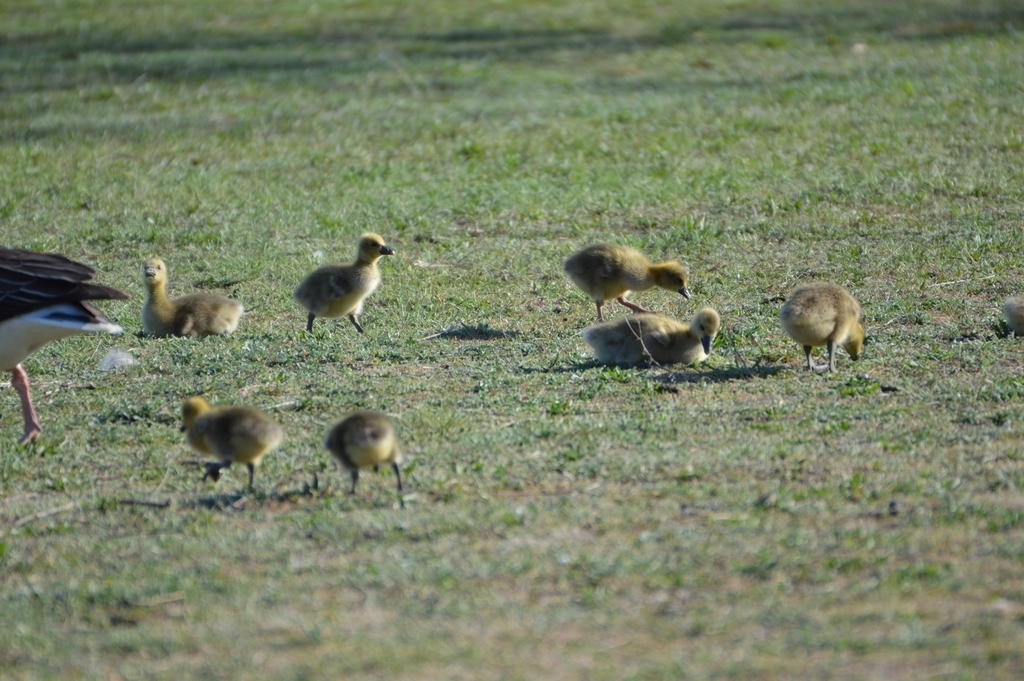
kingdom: Animalia
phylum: Chordata
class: Aves
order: Anseriformes
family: Anatidae
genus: Anser
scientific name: Anser anser
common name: Greylag goose
